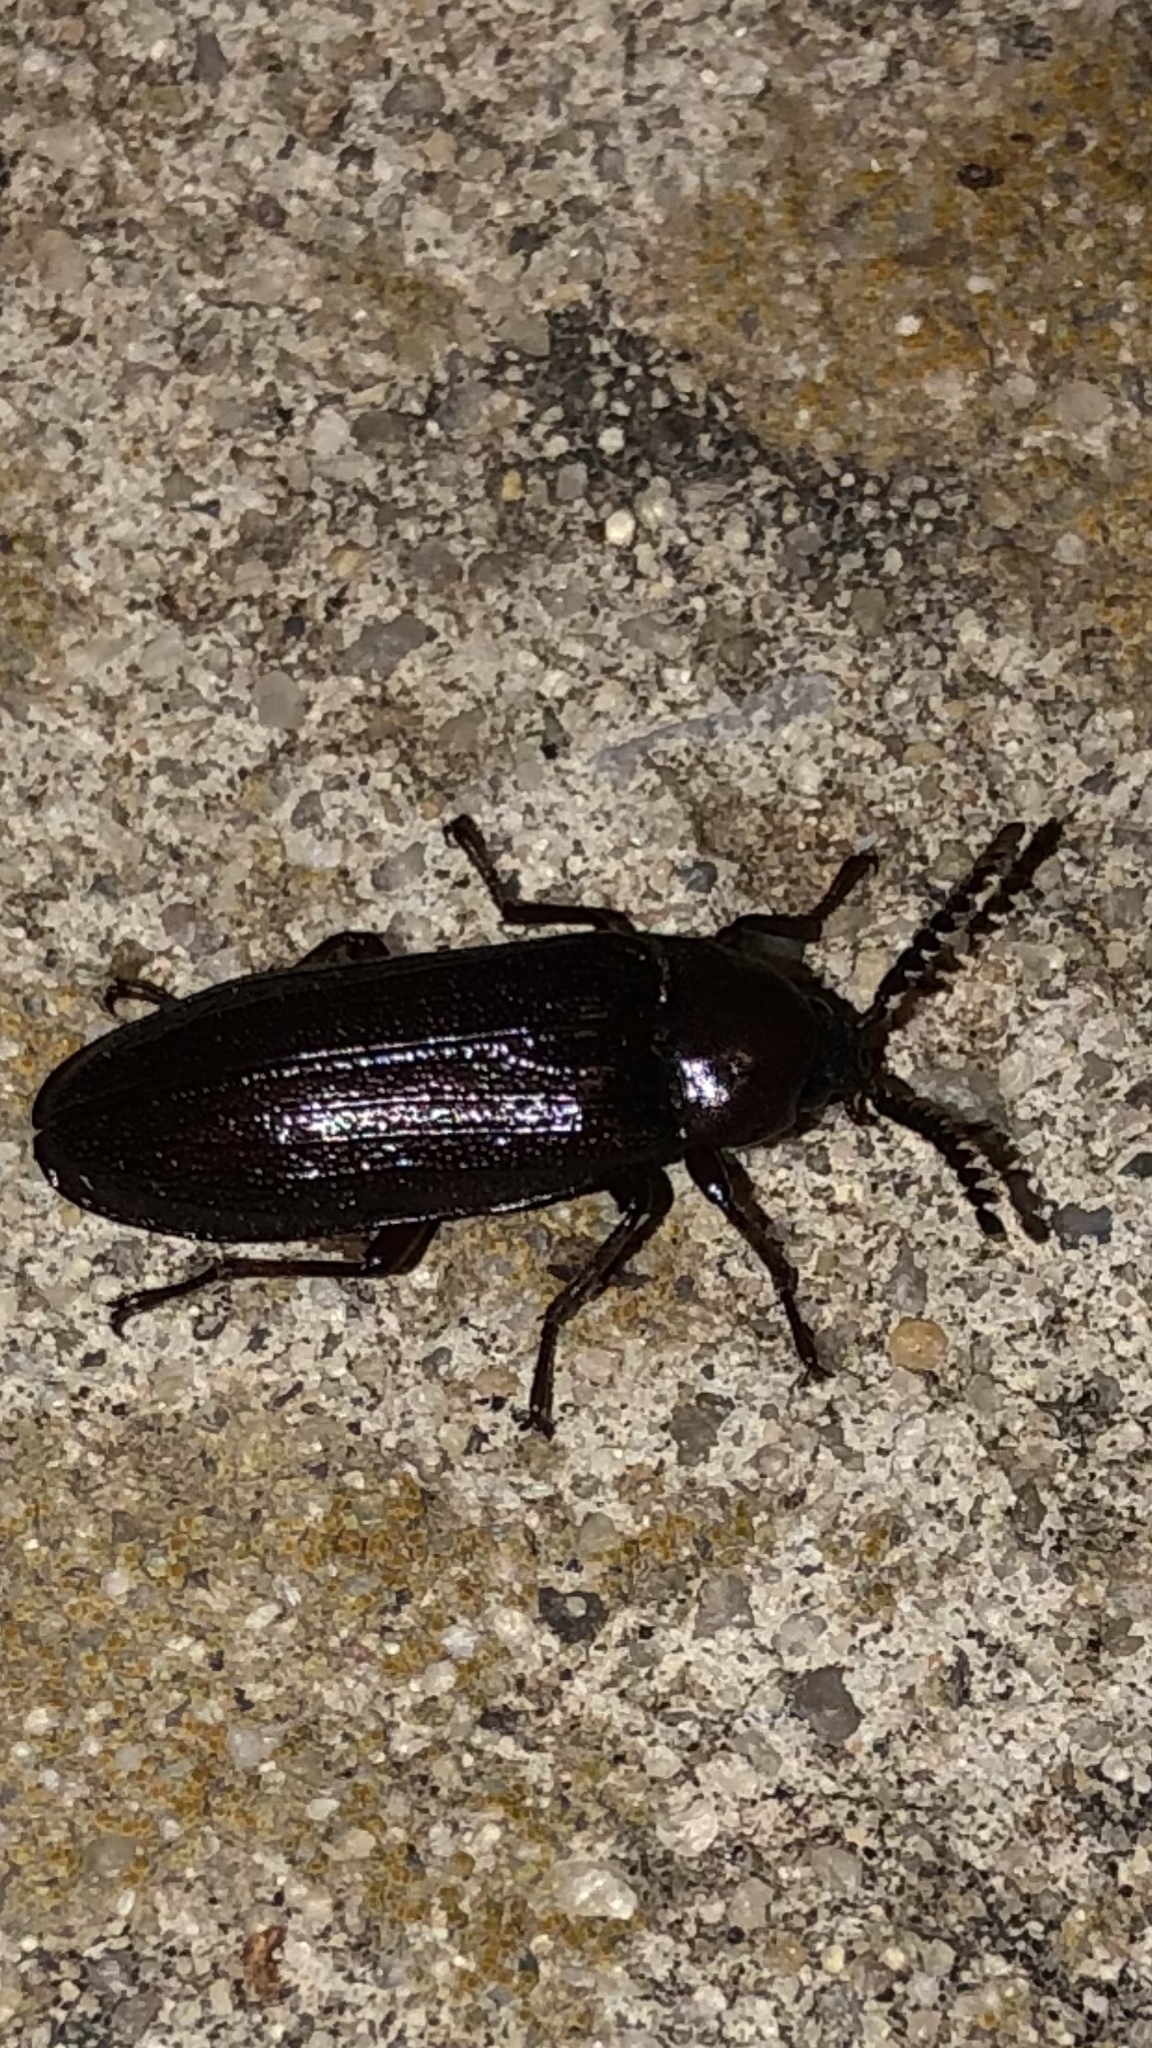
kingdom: Animalia
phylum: Arthropoda
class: Insecta
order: Coleoptera
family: Callirhipidae
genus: Zenoa
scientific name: Zenoa picea
